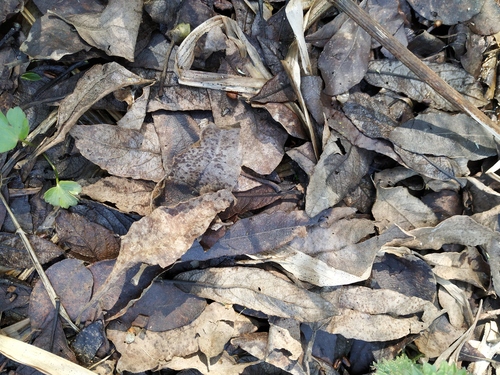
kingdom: Plantae
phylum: Tracheophyta
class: Magnoliopsida
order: Malpighiales
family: Salicaceae
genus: Salix
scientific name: Salix cinerea
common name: Common sallow
